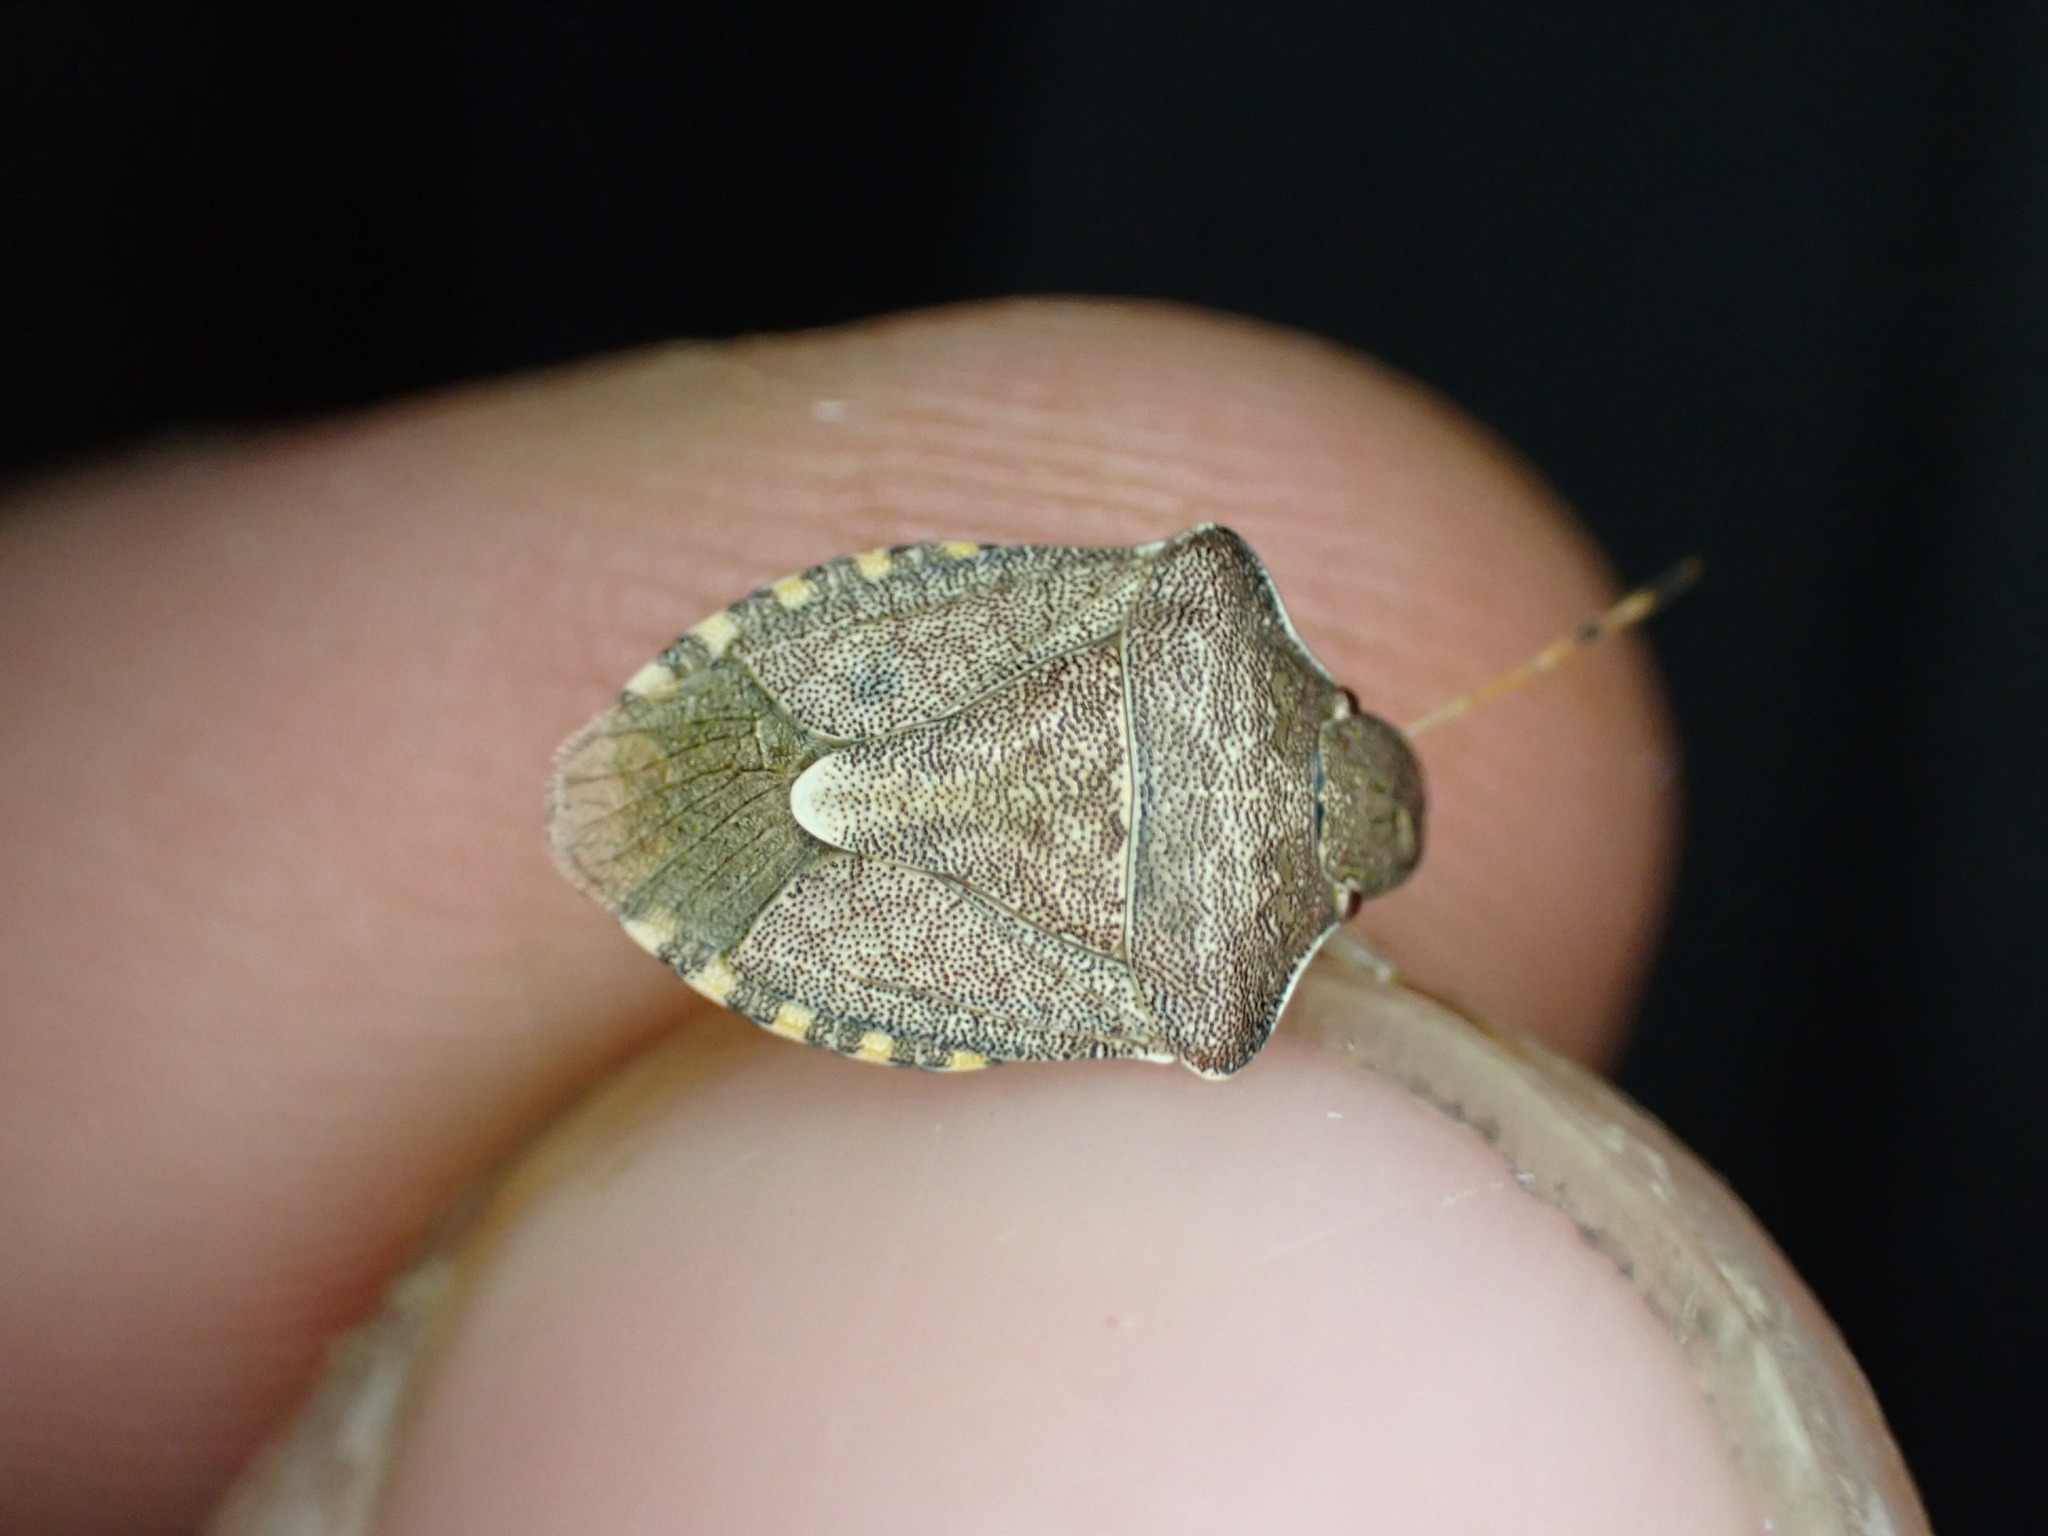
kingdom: Animalia
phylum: Arthropoda
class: Insecta
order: Hemiptera
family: Pentatomidae
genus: Holcostethus
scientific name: Holcostethus strictus
